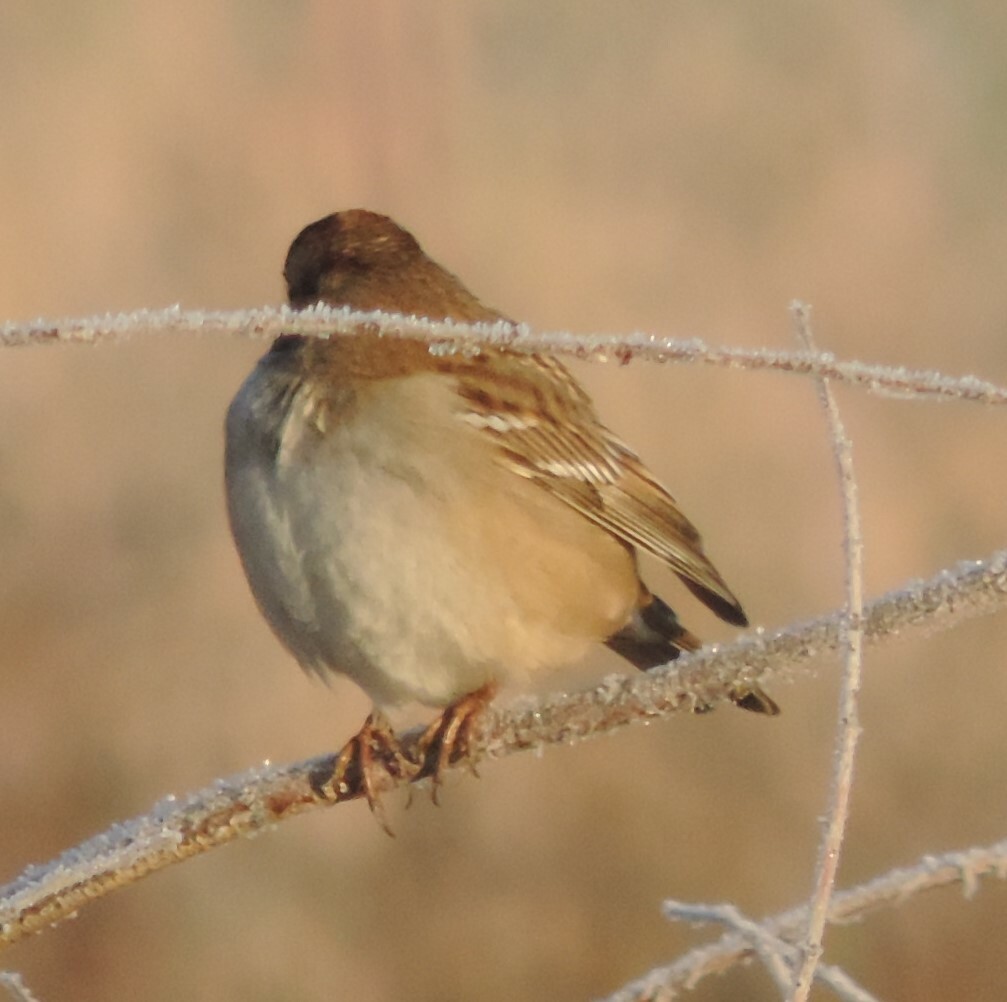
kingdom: Animalia
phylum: Chordata
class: Aves
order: Passeriformes
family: Passerellidae
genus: Zonotrichia
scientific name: Zonotrichia leucophrys
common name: White-crowned sparrow
